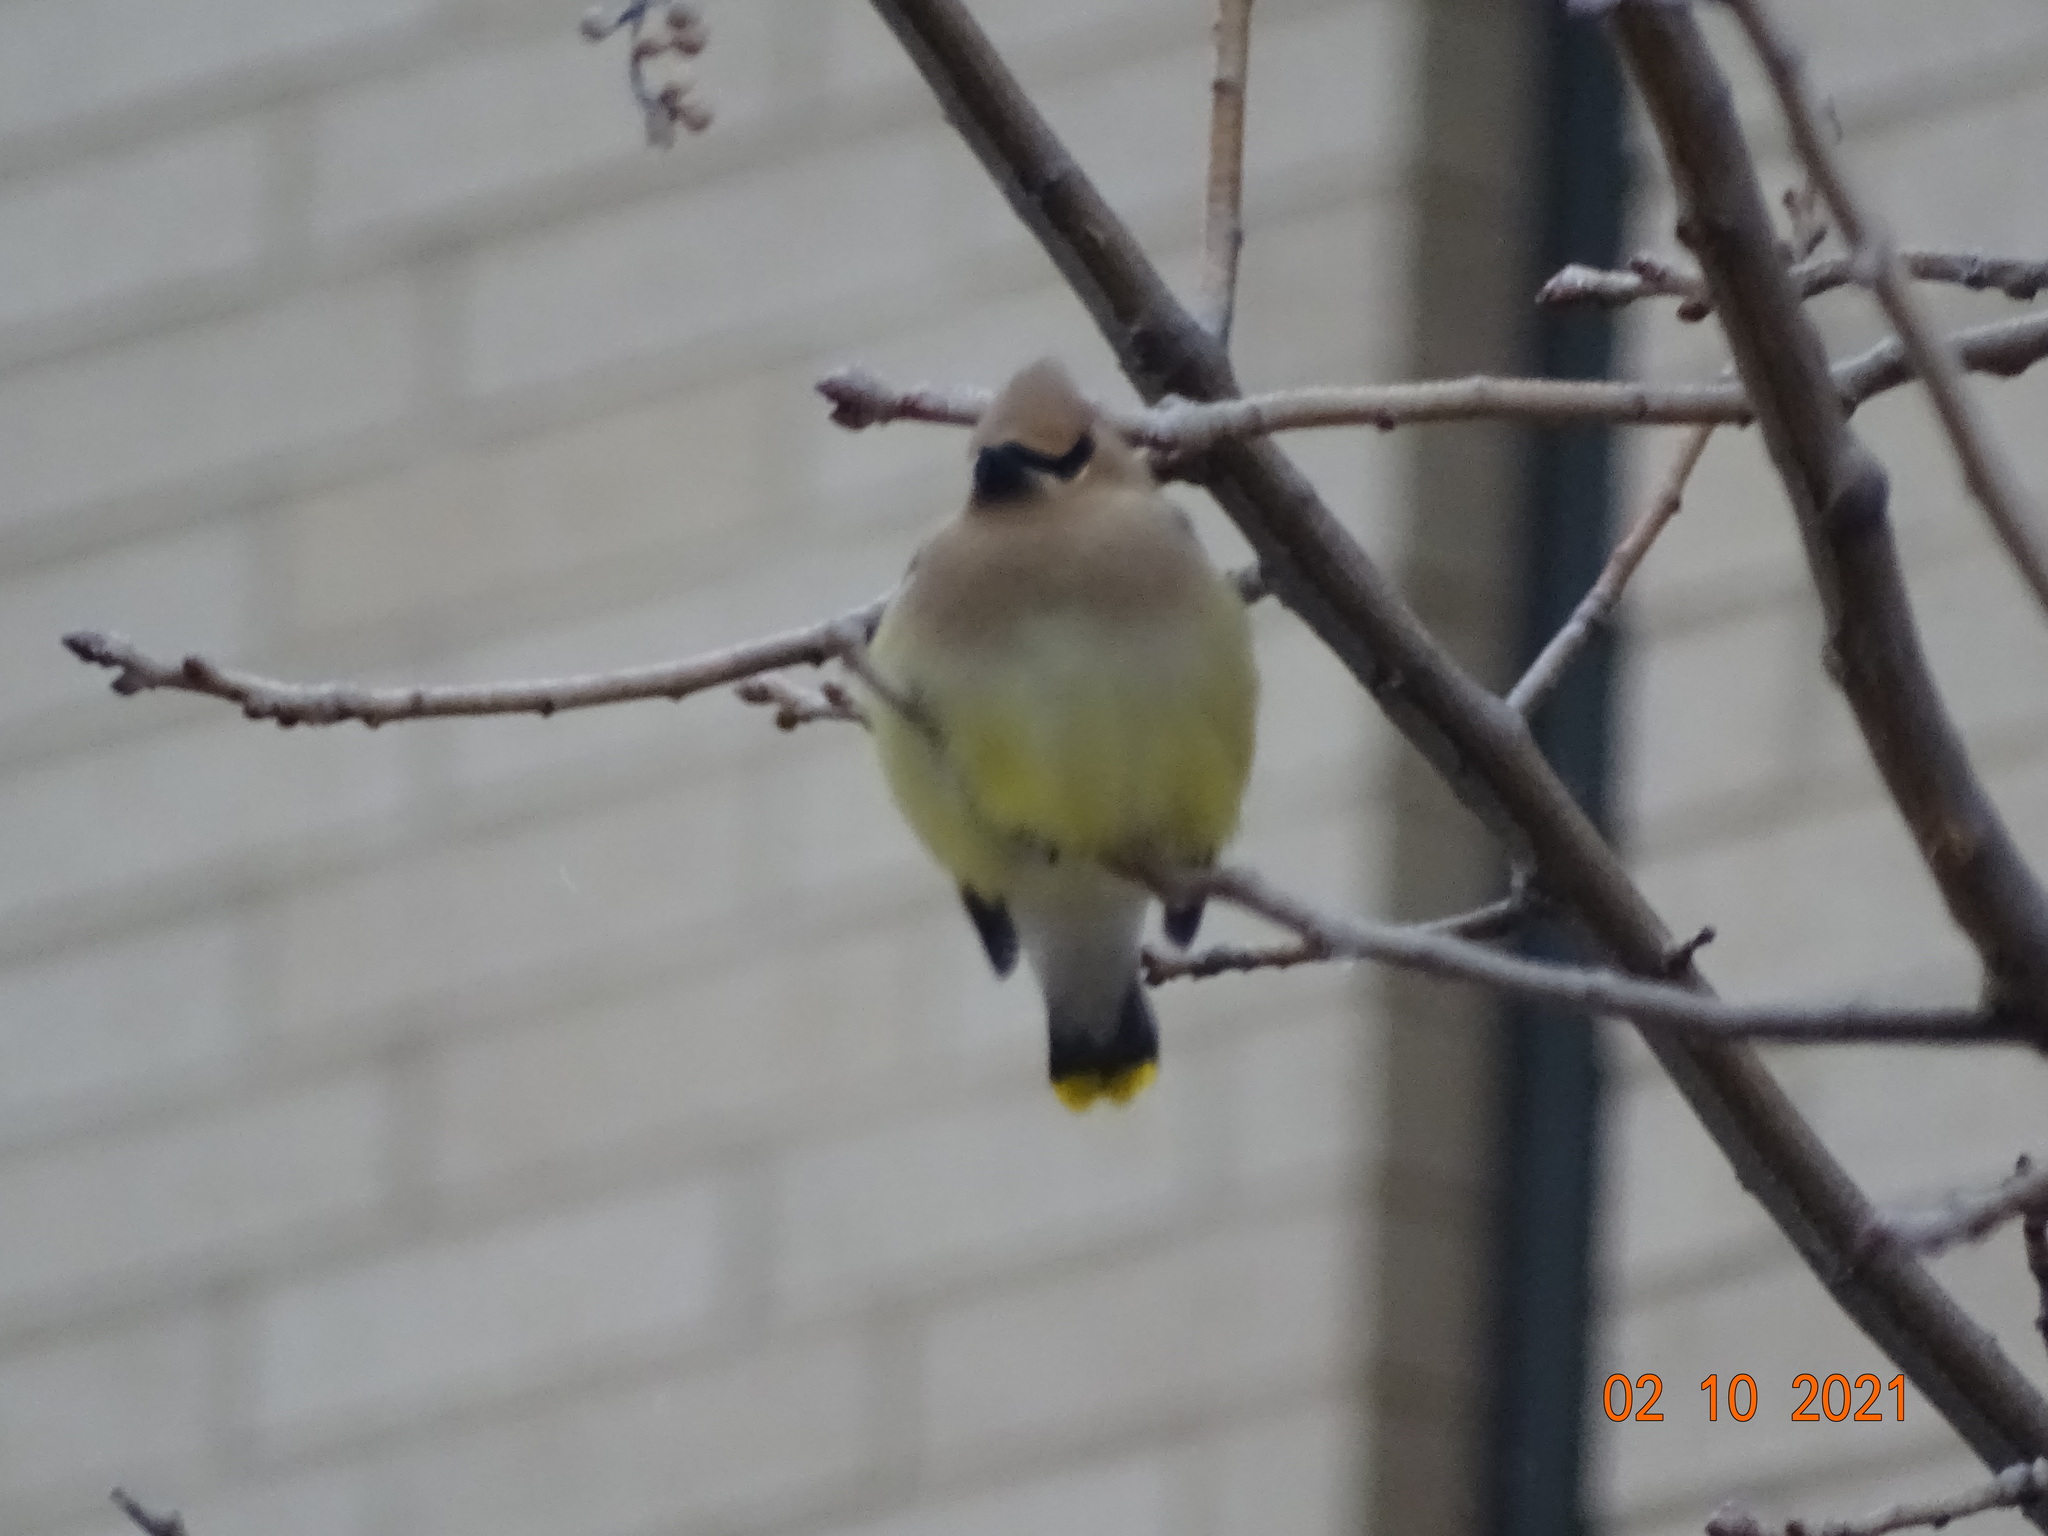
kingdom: Animalia
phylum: Chordata
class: Aves
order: Passeriformes
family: Bombycillidae
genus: Bombycilla
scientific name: Bombycilla cedrorum
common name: Cedar waxwing
